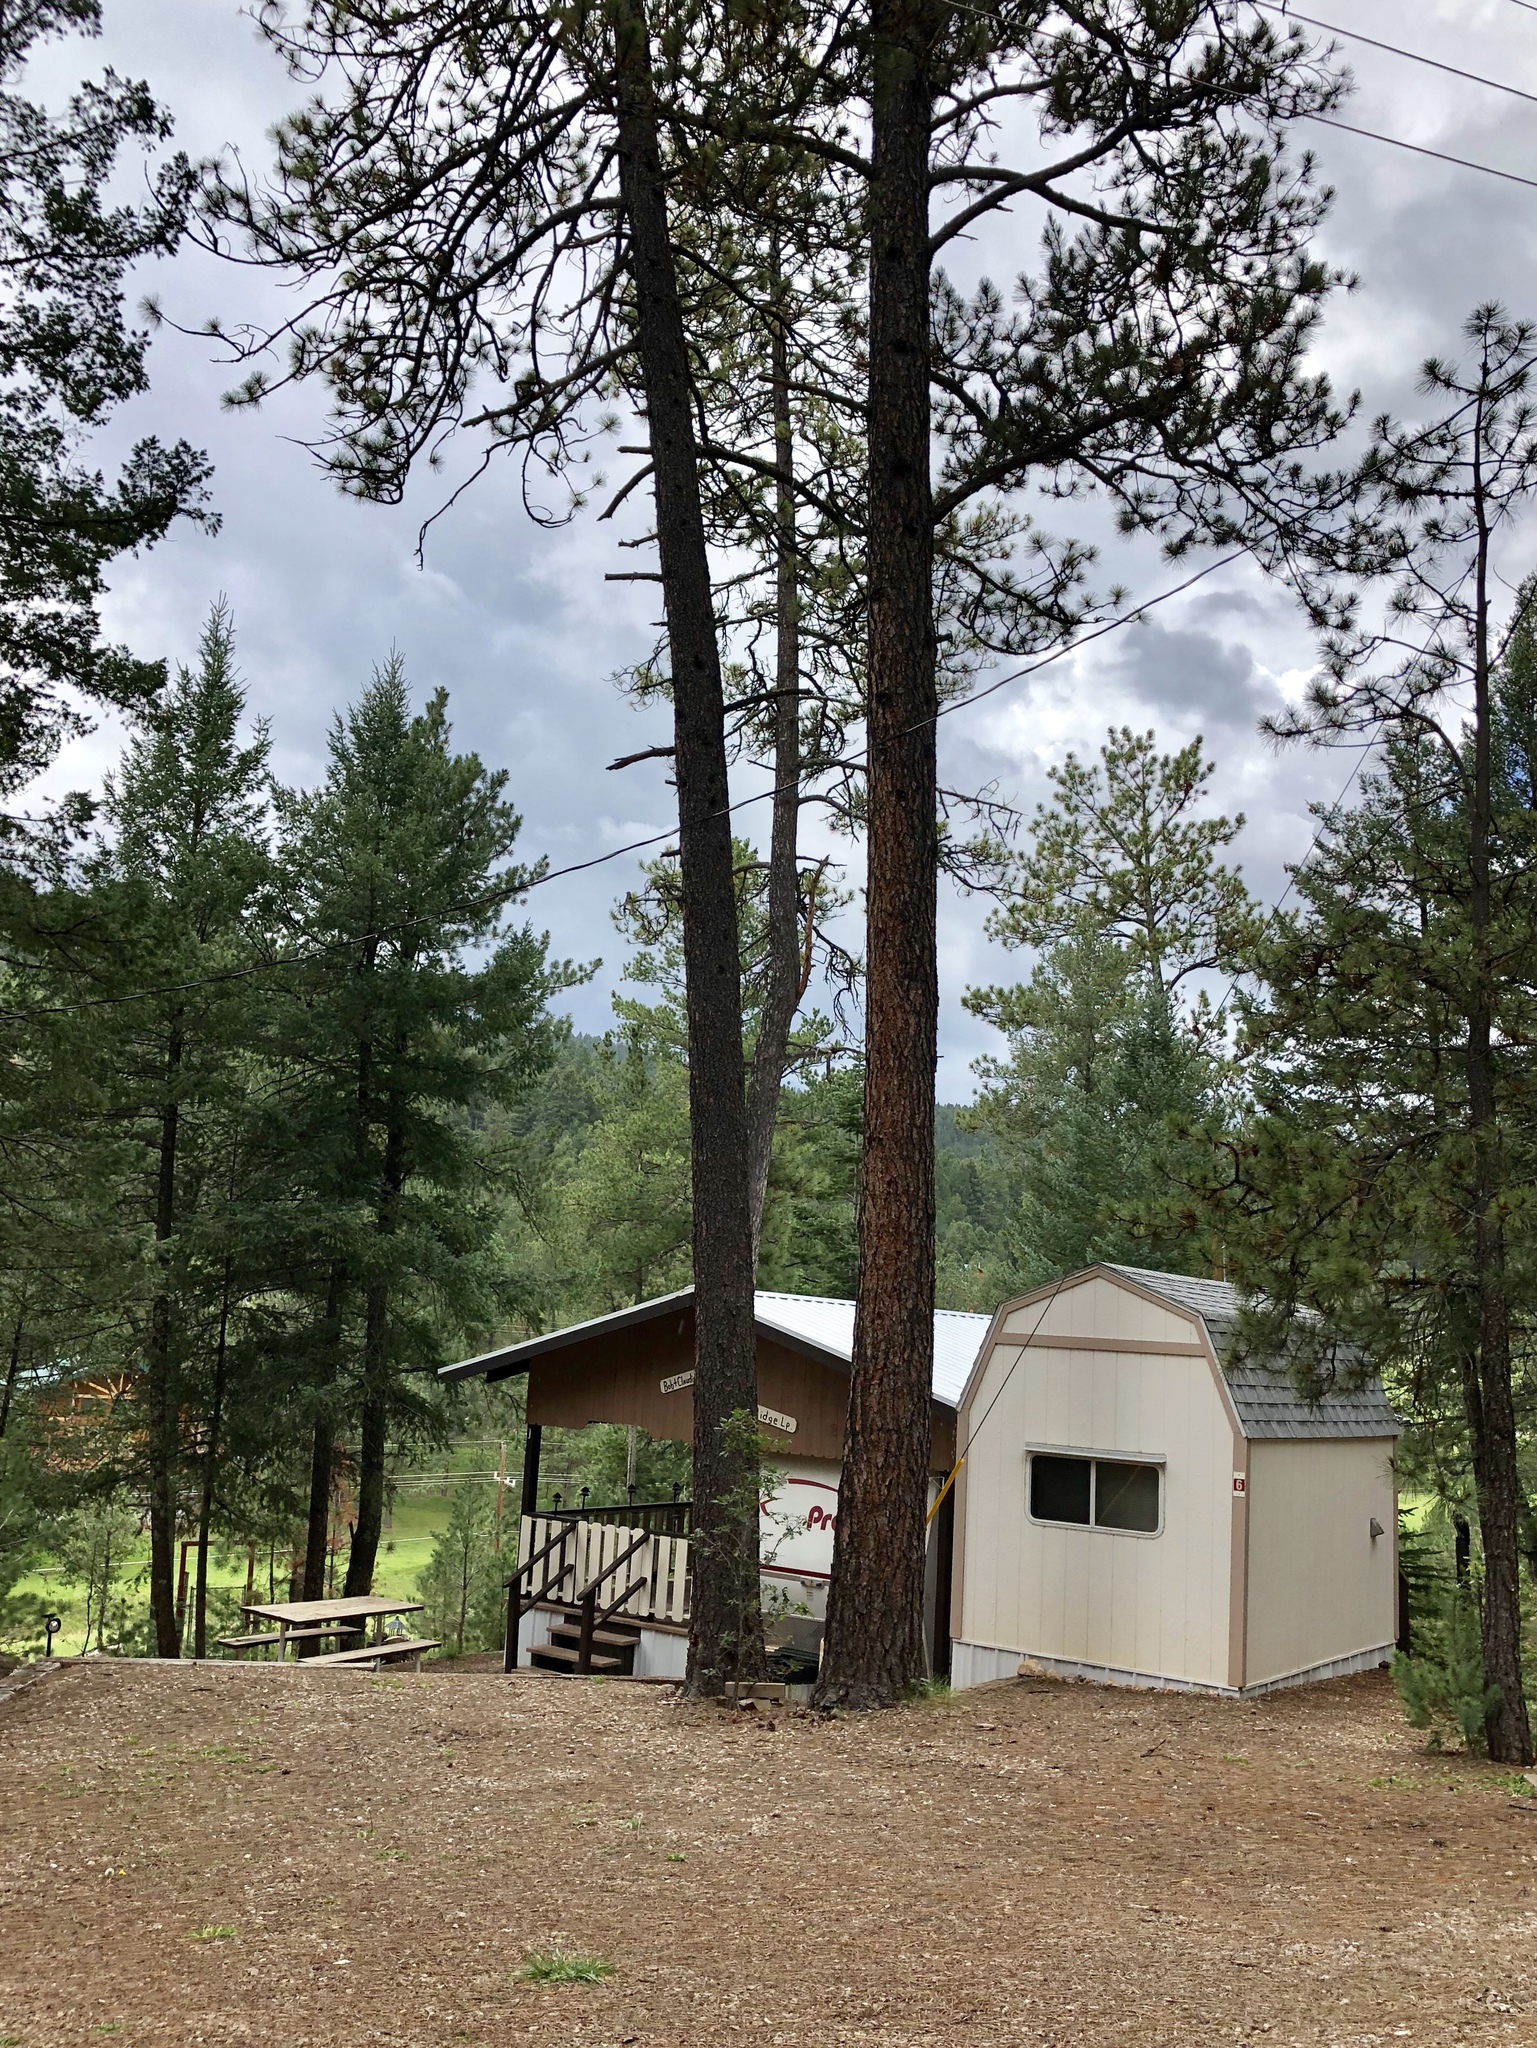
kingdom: Plantae
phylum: Tracheophyta
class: Pinopsida
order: Pinales
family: Pinaceae
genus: Pseudotsuga
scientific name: Pseudotsuga menziesii
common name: Douglas fir
